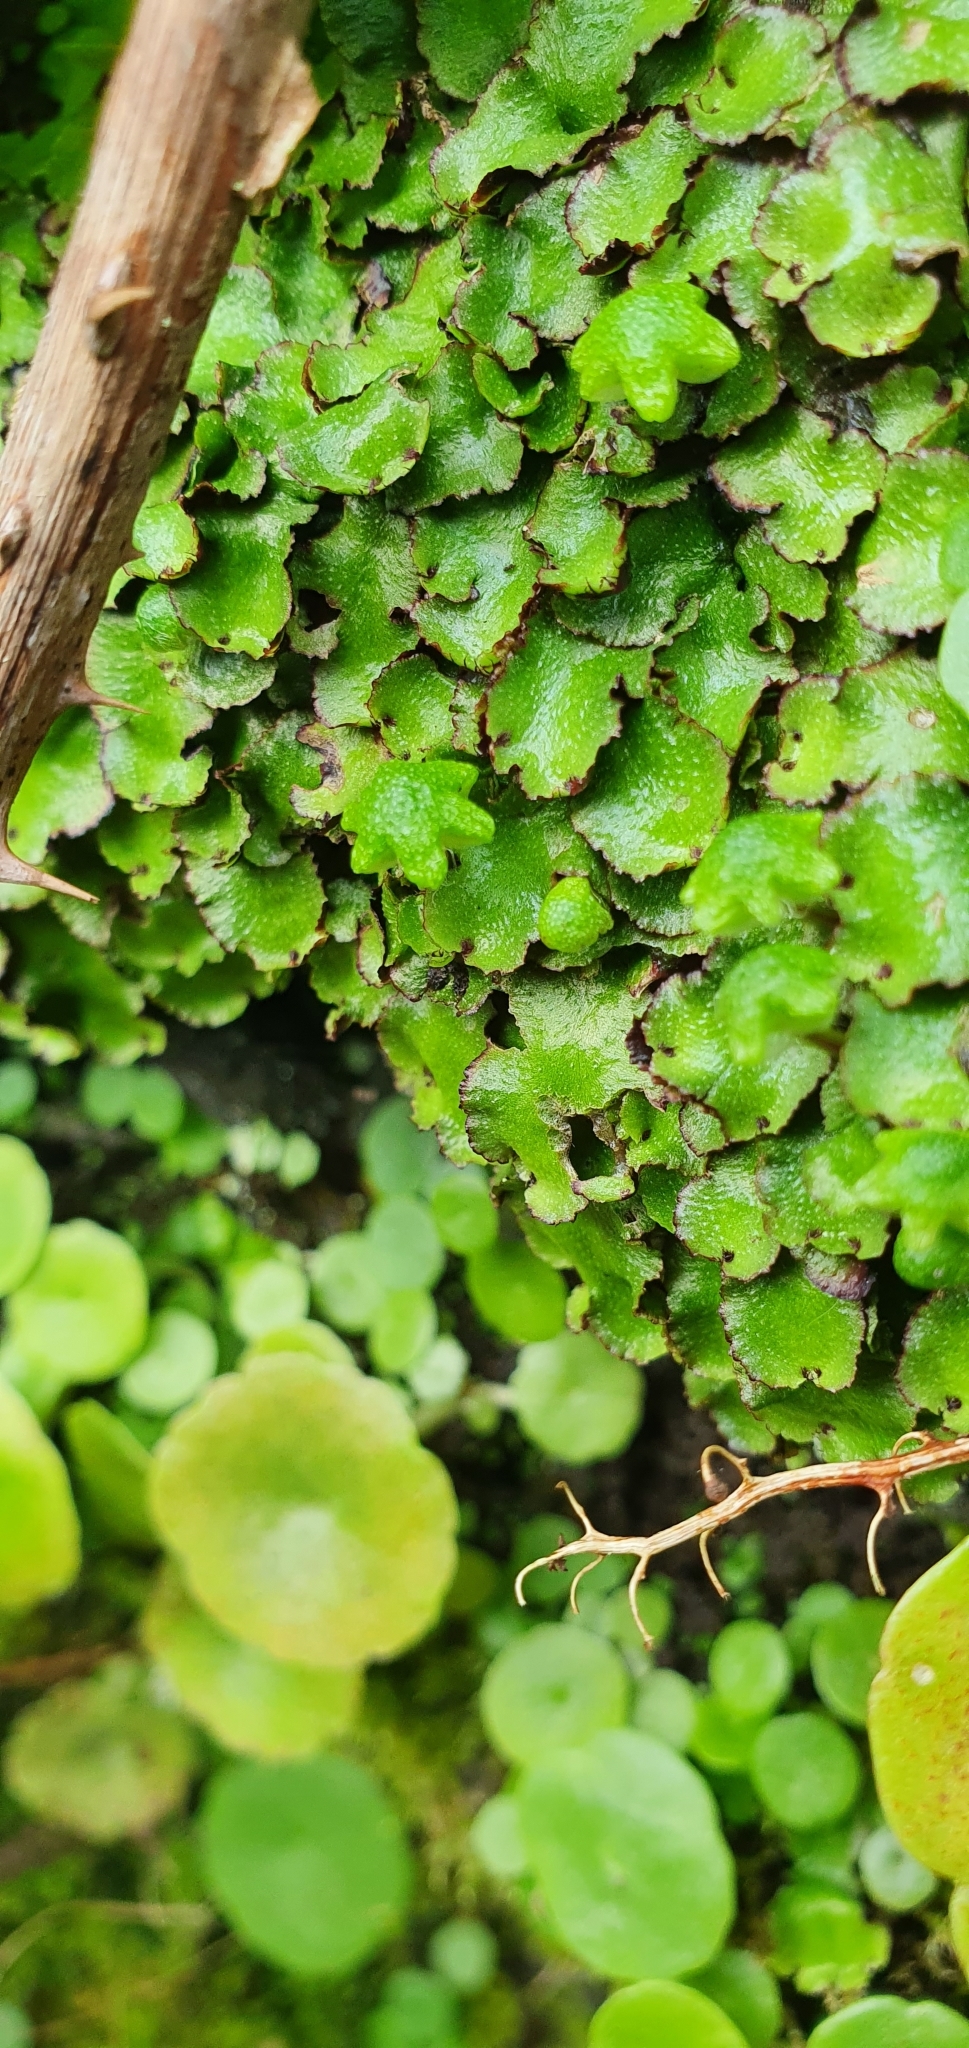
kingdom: Plantae
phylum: Marchantiophyta
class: Marchantiopsida
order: Marchantiales
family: Aytoniaceae
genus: Reboulia
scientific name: Reboulia hemisphaerica
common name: Purple-margined liverwort
